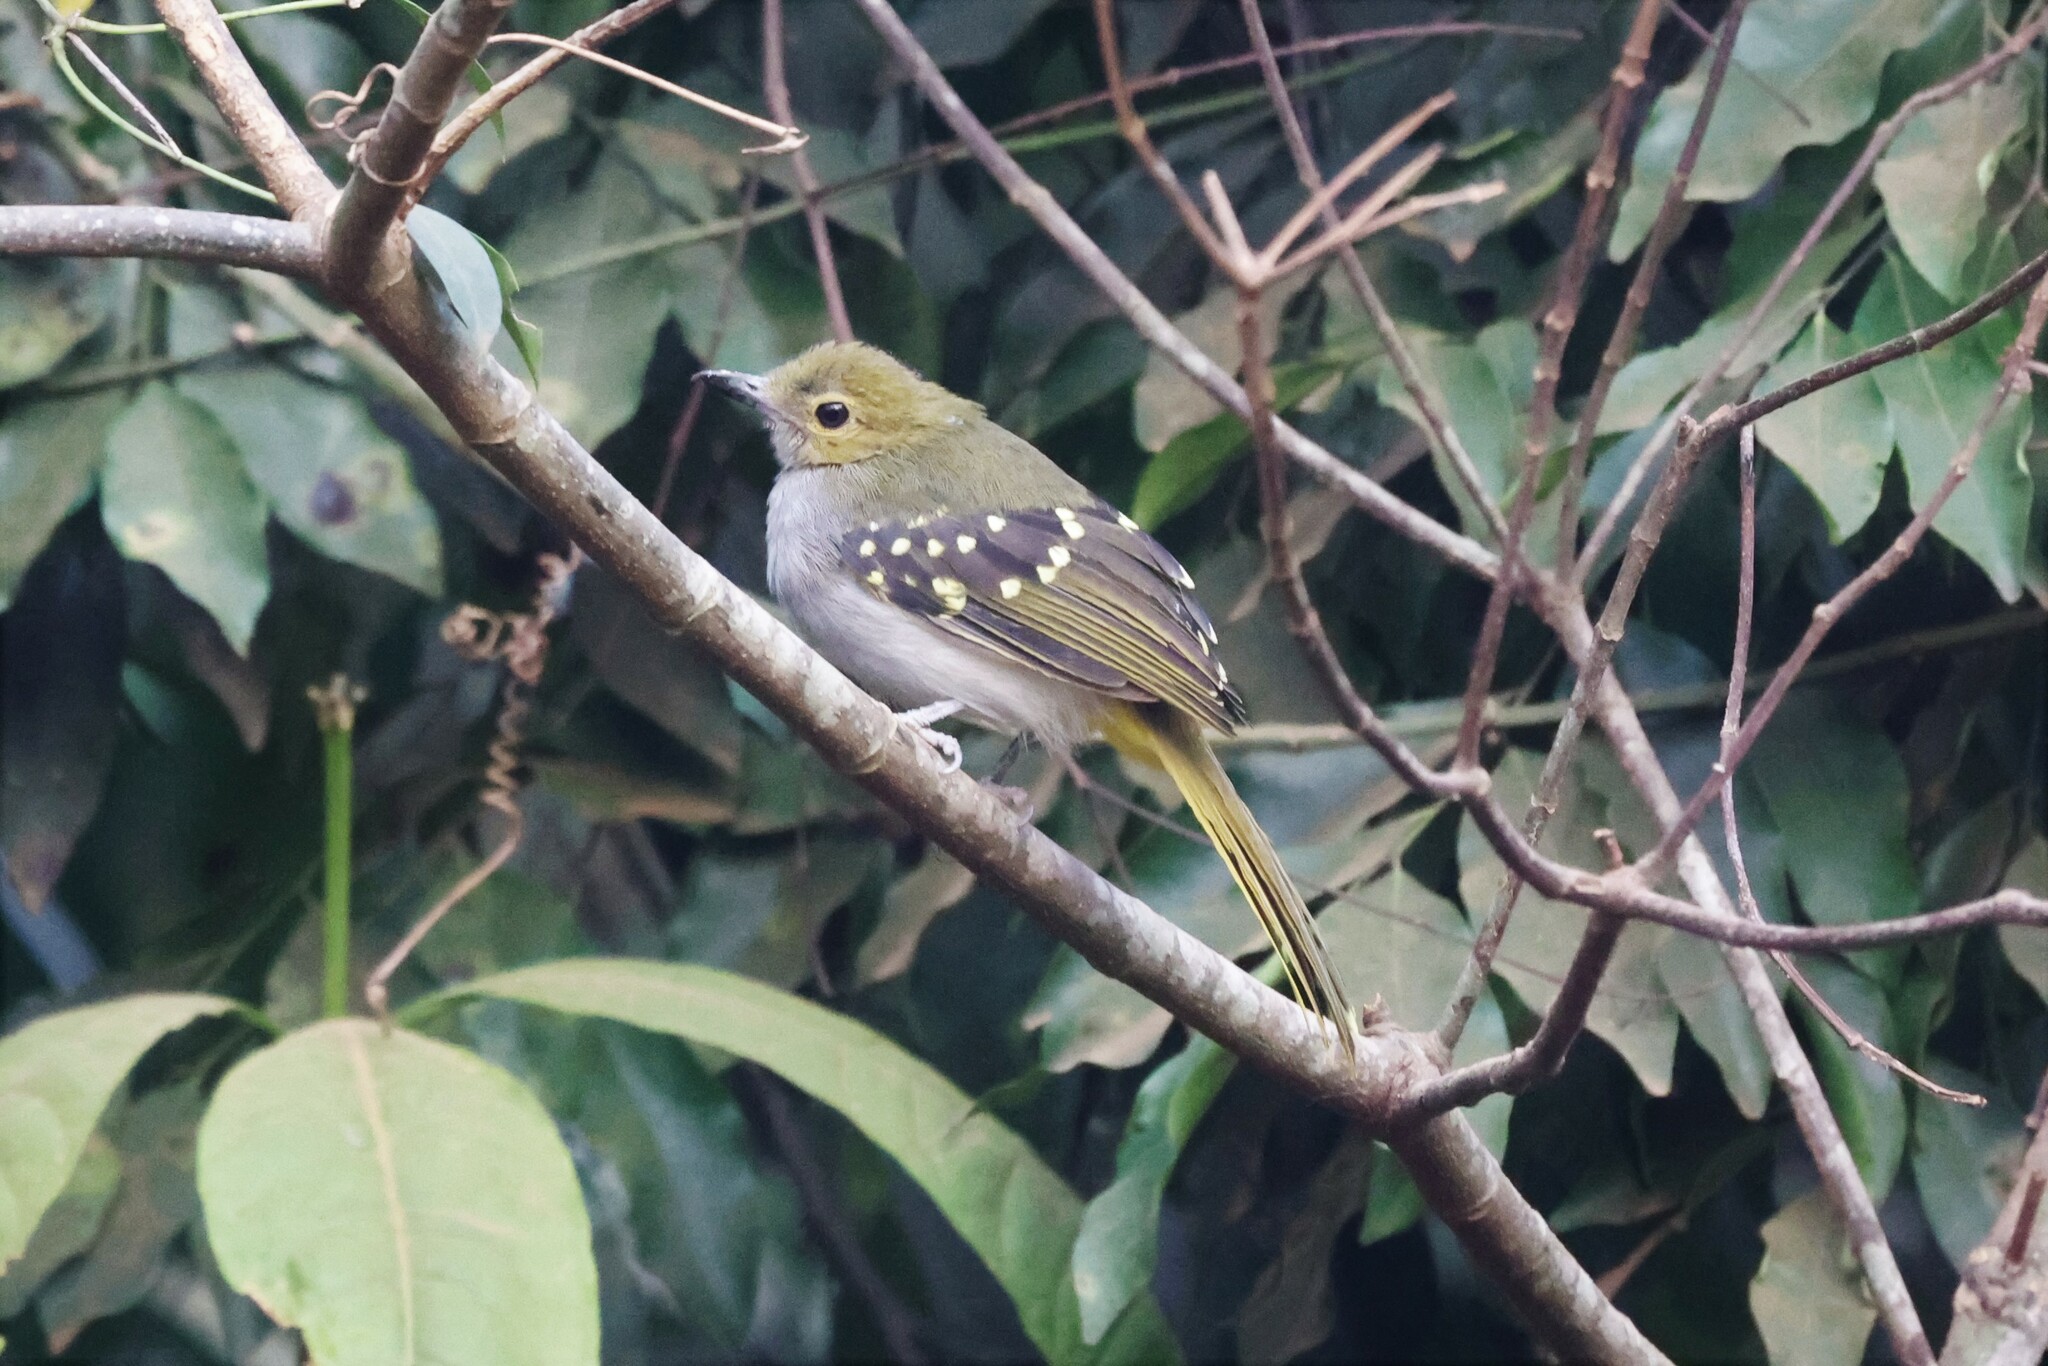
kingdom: Animalia
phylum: Chordata
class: Aves
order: Passeriformes
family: Nicatoridae
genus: Nicator
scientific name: Nicator chloris
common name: Western nicator
